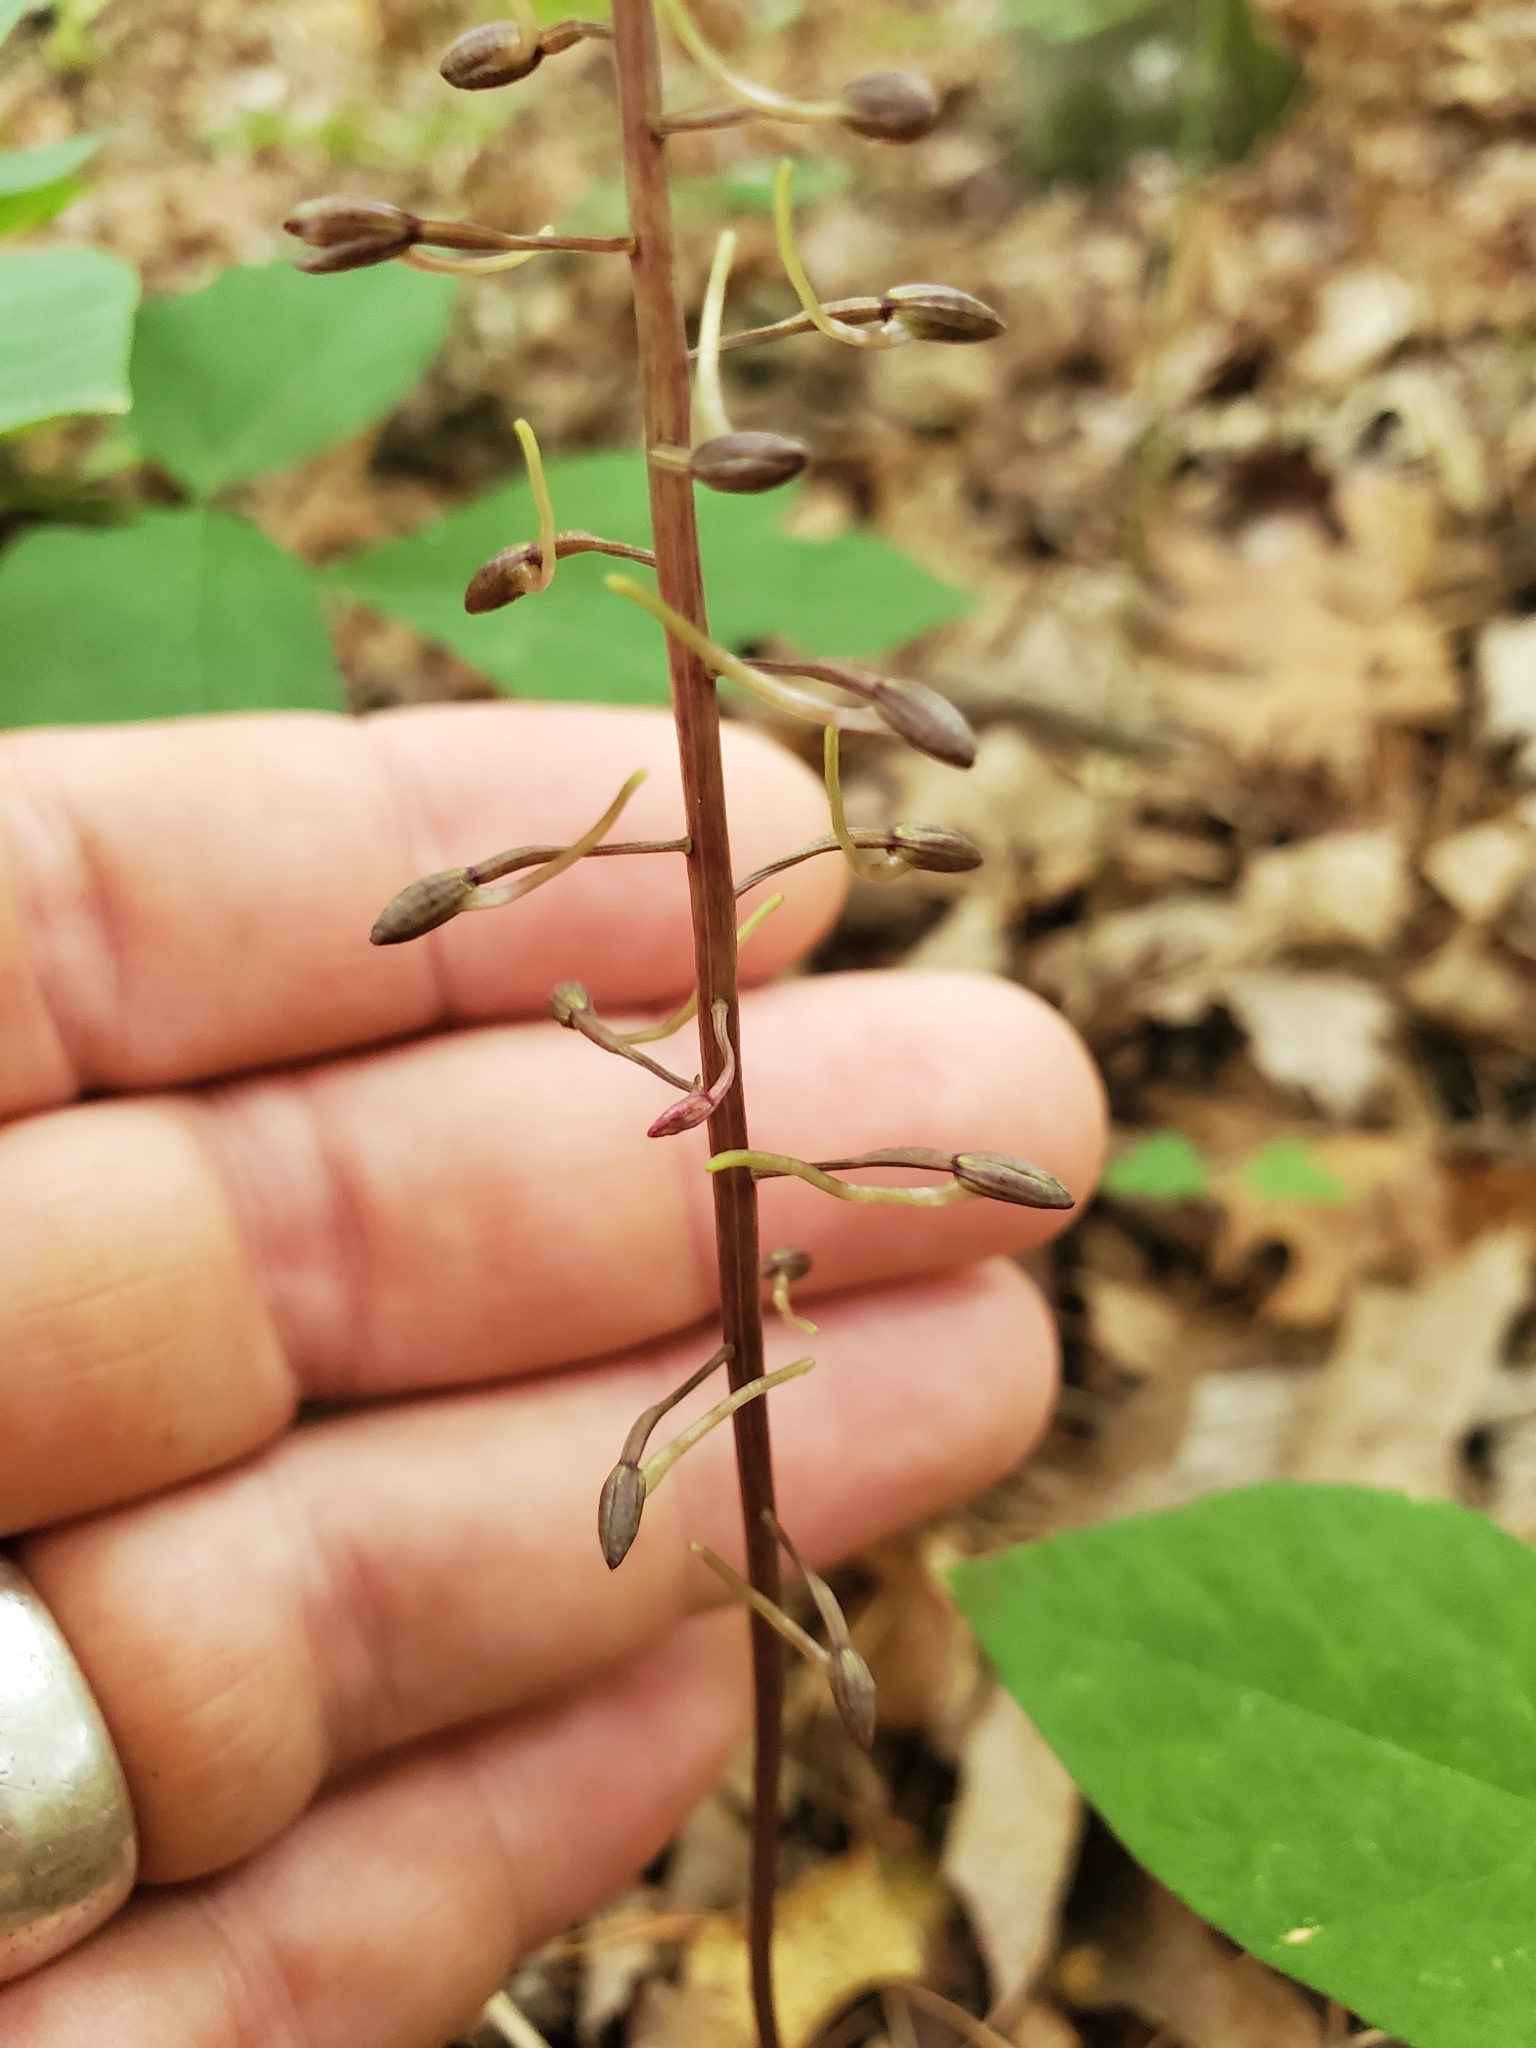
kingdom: Plantae
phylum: Tracheophyta
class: Liliopsida
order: Asparagales
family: Orchidaceae
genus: Tipularia
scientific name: Tipularia discolor
